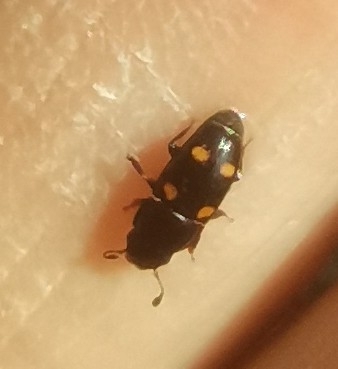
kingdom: Animalia
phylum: Arthropoda
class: Insecta
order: Coleoptera
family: Nitidulidae
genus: Glischrochilus
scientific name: Glischrochilus hortensis
